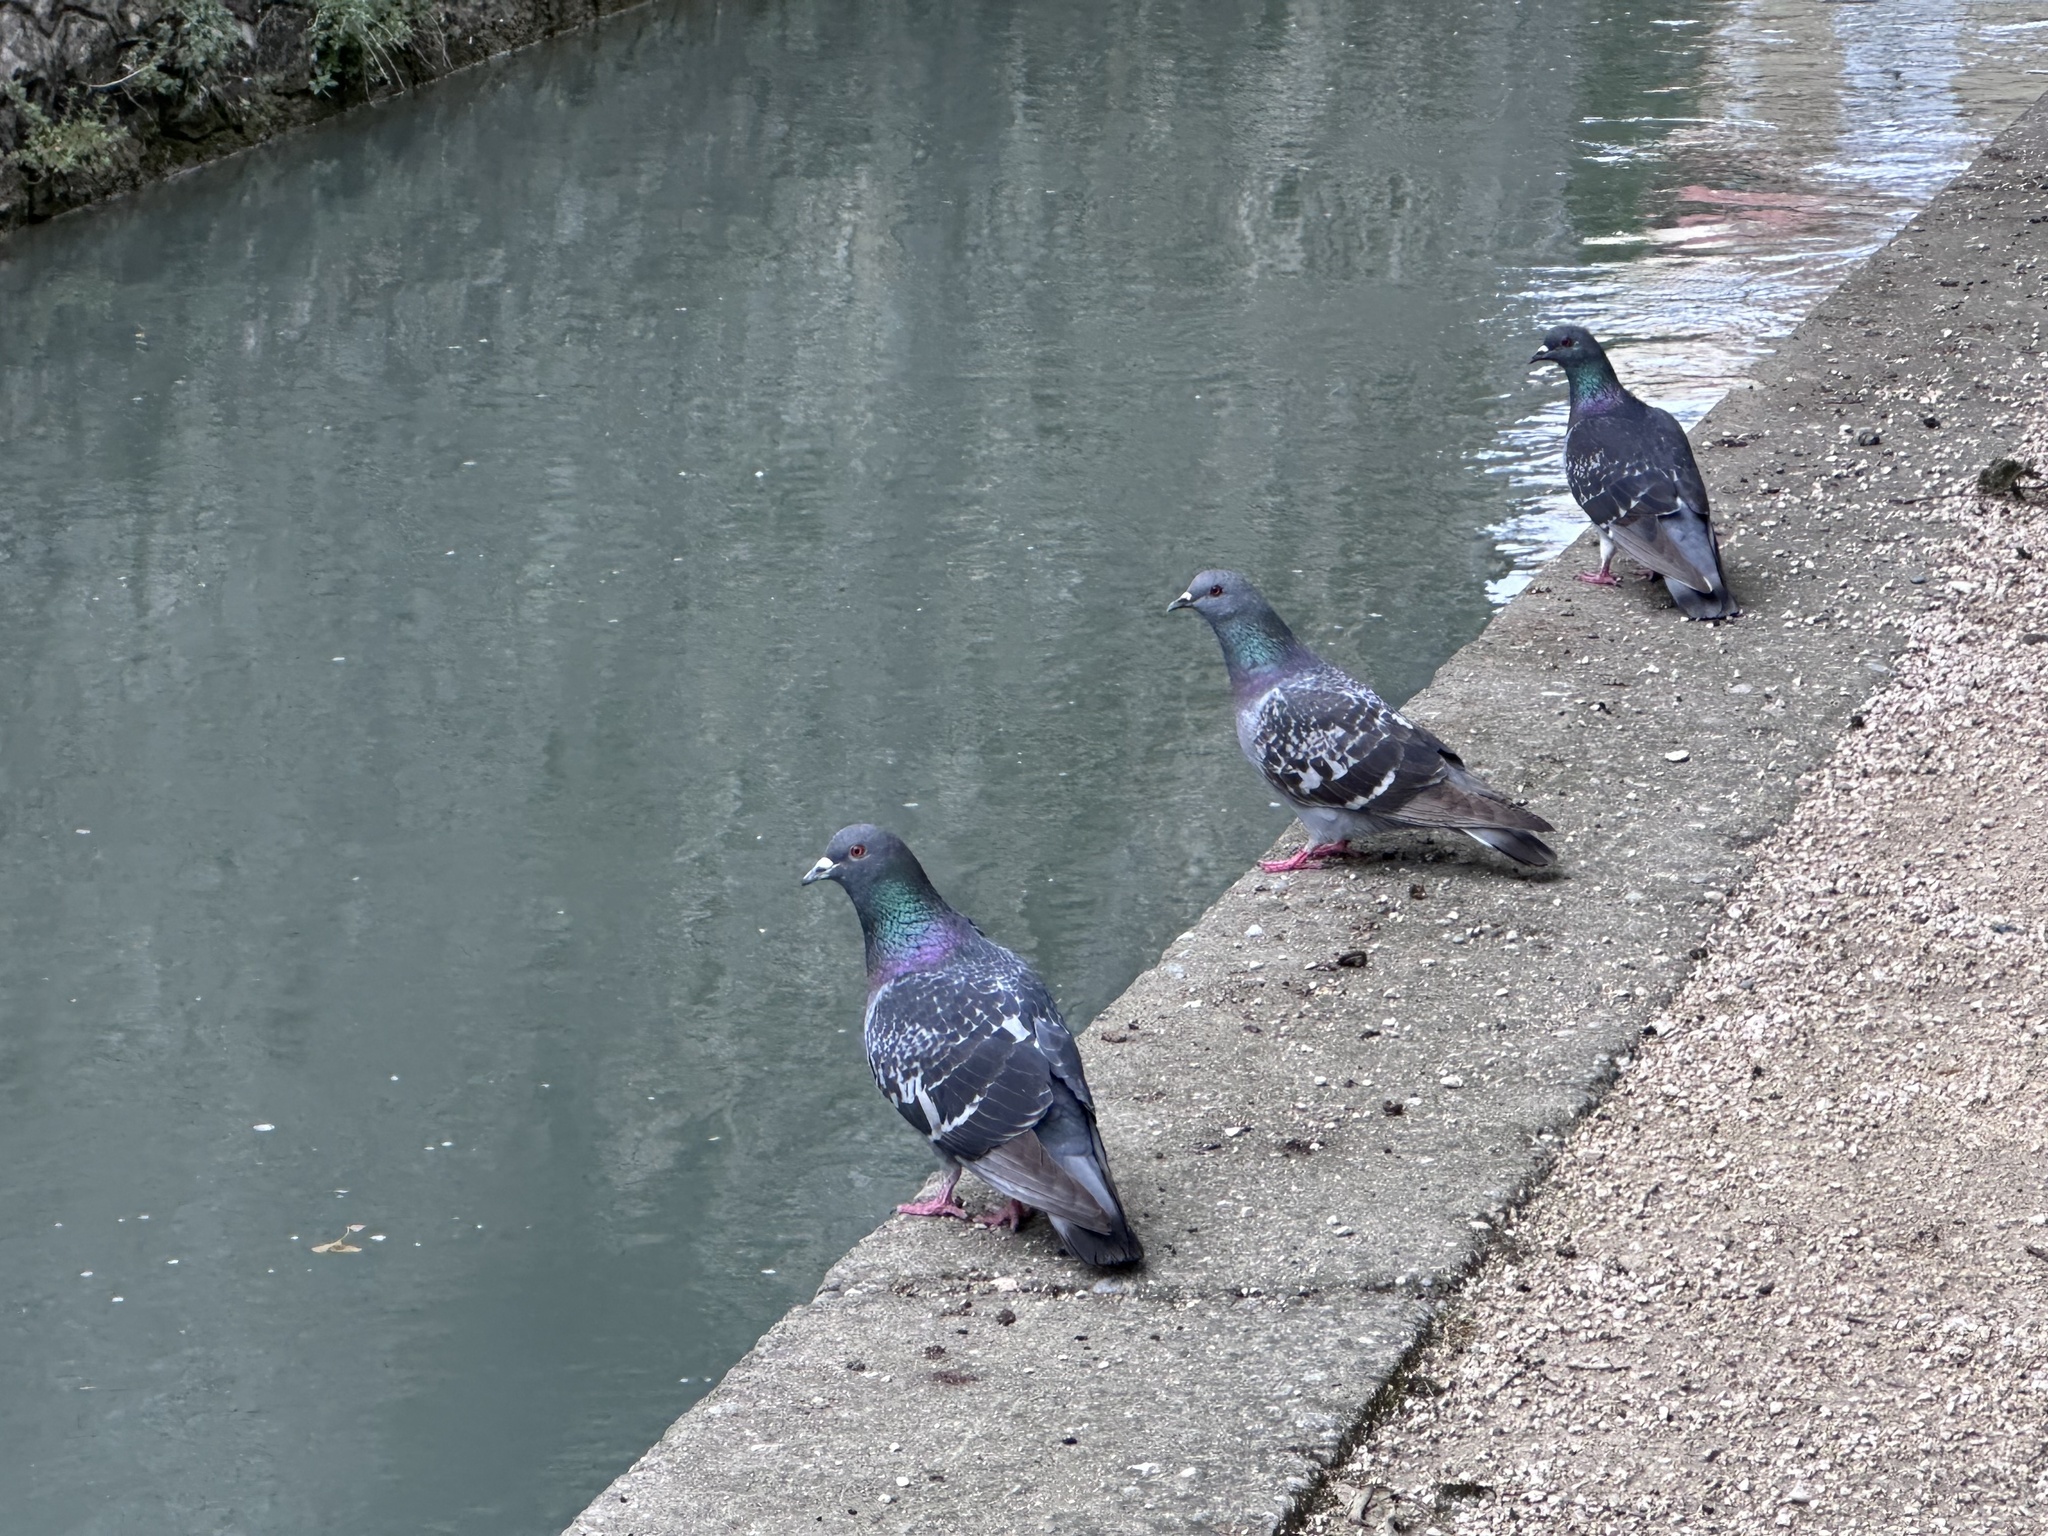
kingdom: Animalia
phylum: Chordata
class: Aves
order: Columbiformes
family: Columbidae
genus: Columba
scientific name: Columba livia
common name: Rock pigeon
